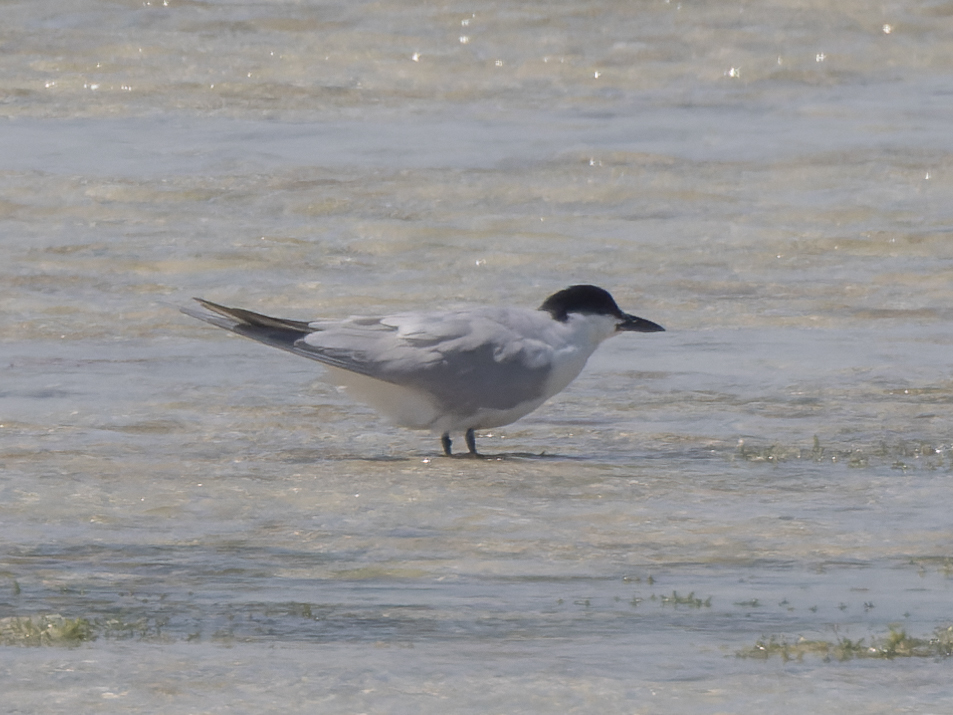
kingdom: Animalia
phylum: Chordata
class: Aves
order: Charadriiformes
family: Laridae
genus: Gelochelidon
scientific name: Gelochelidon nilotica
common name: Gull-billed tern
